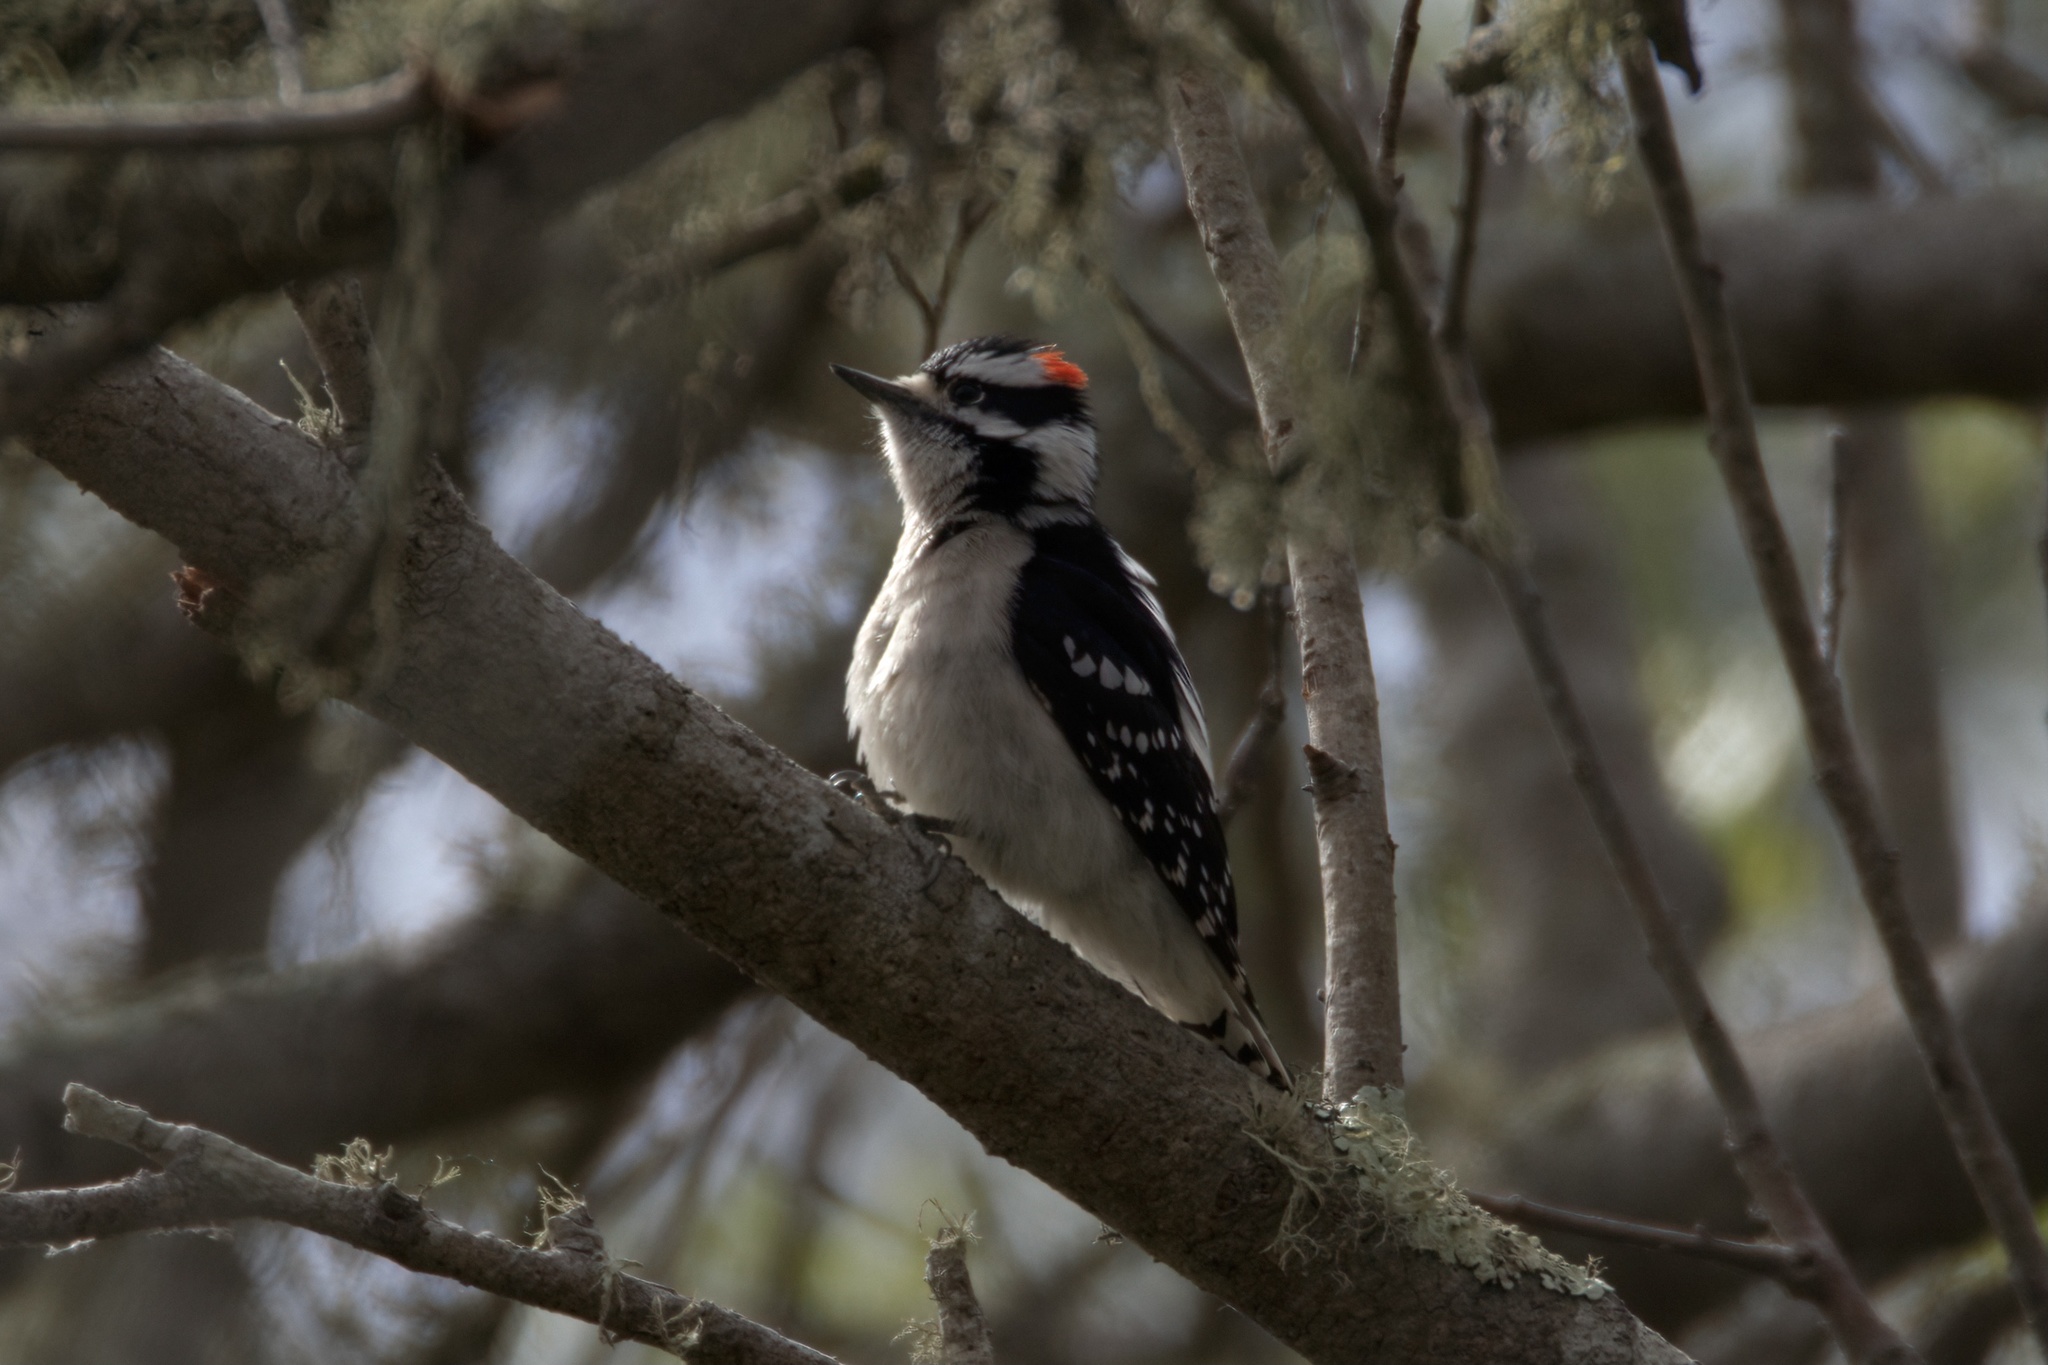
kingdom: Animalia
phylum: Chordata
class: Aves
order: Piciformes
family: Picidae
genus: Dryobates
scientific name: Dryobates pubescens
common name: Downy woodpecker
